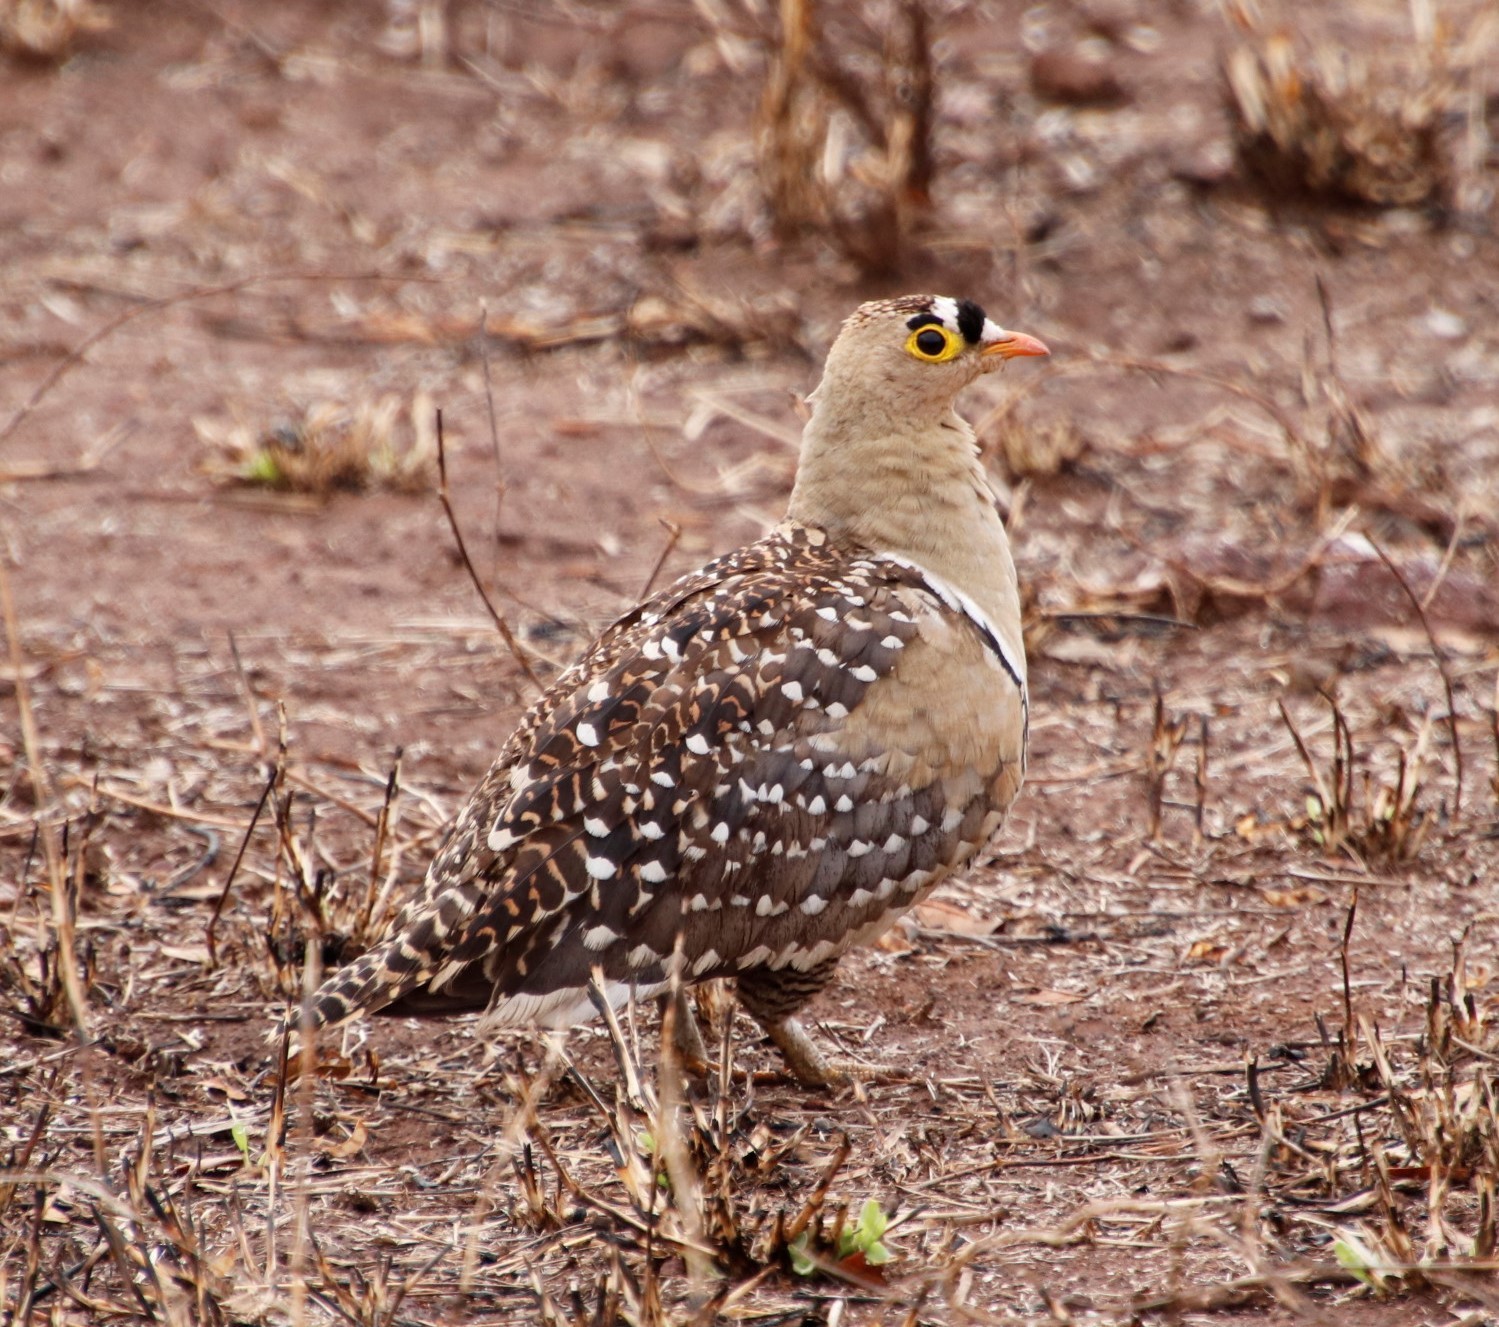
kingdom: Animalia
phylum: Chordata
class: Aves
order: Pteroclidiformes
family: Pteroclididae
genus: Pterocles
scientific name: Pterocles bicinctus
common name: Double-banded sandgrouse
